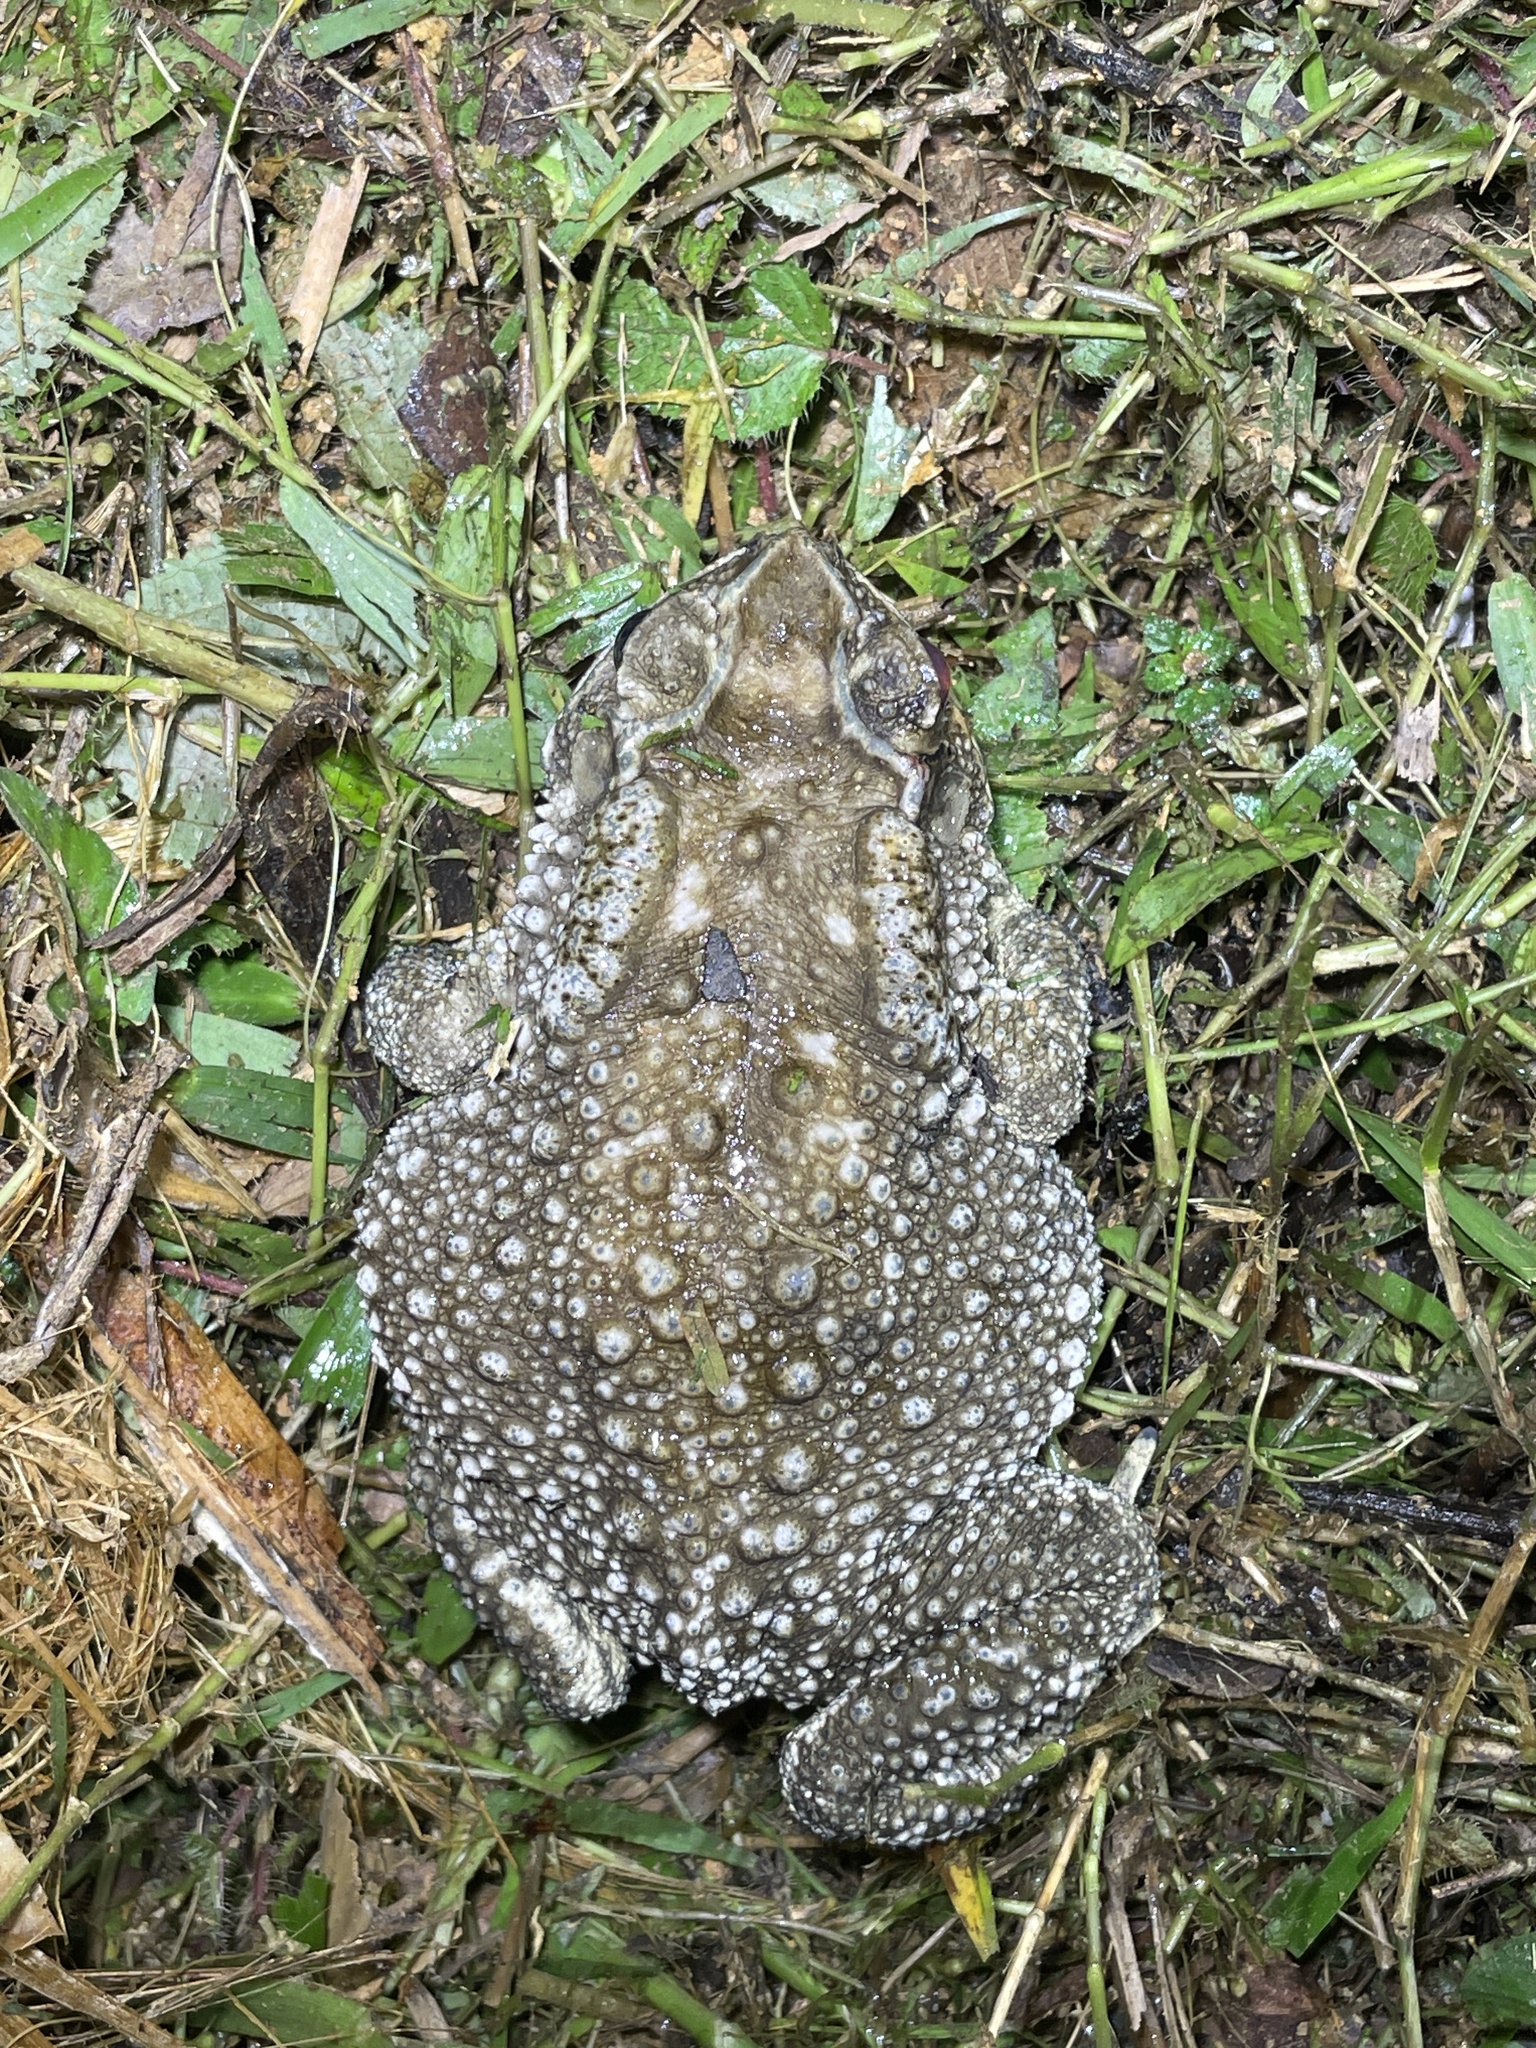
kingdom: Animalia
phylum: Chordata
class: Amphibia
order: Anura
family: Bufonidae
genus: Duttaphrynus
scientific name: Duttaphrynus melanostictus
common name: Common sunda toad
